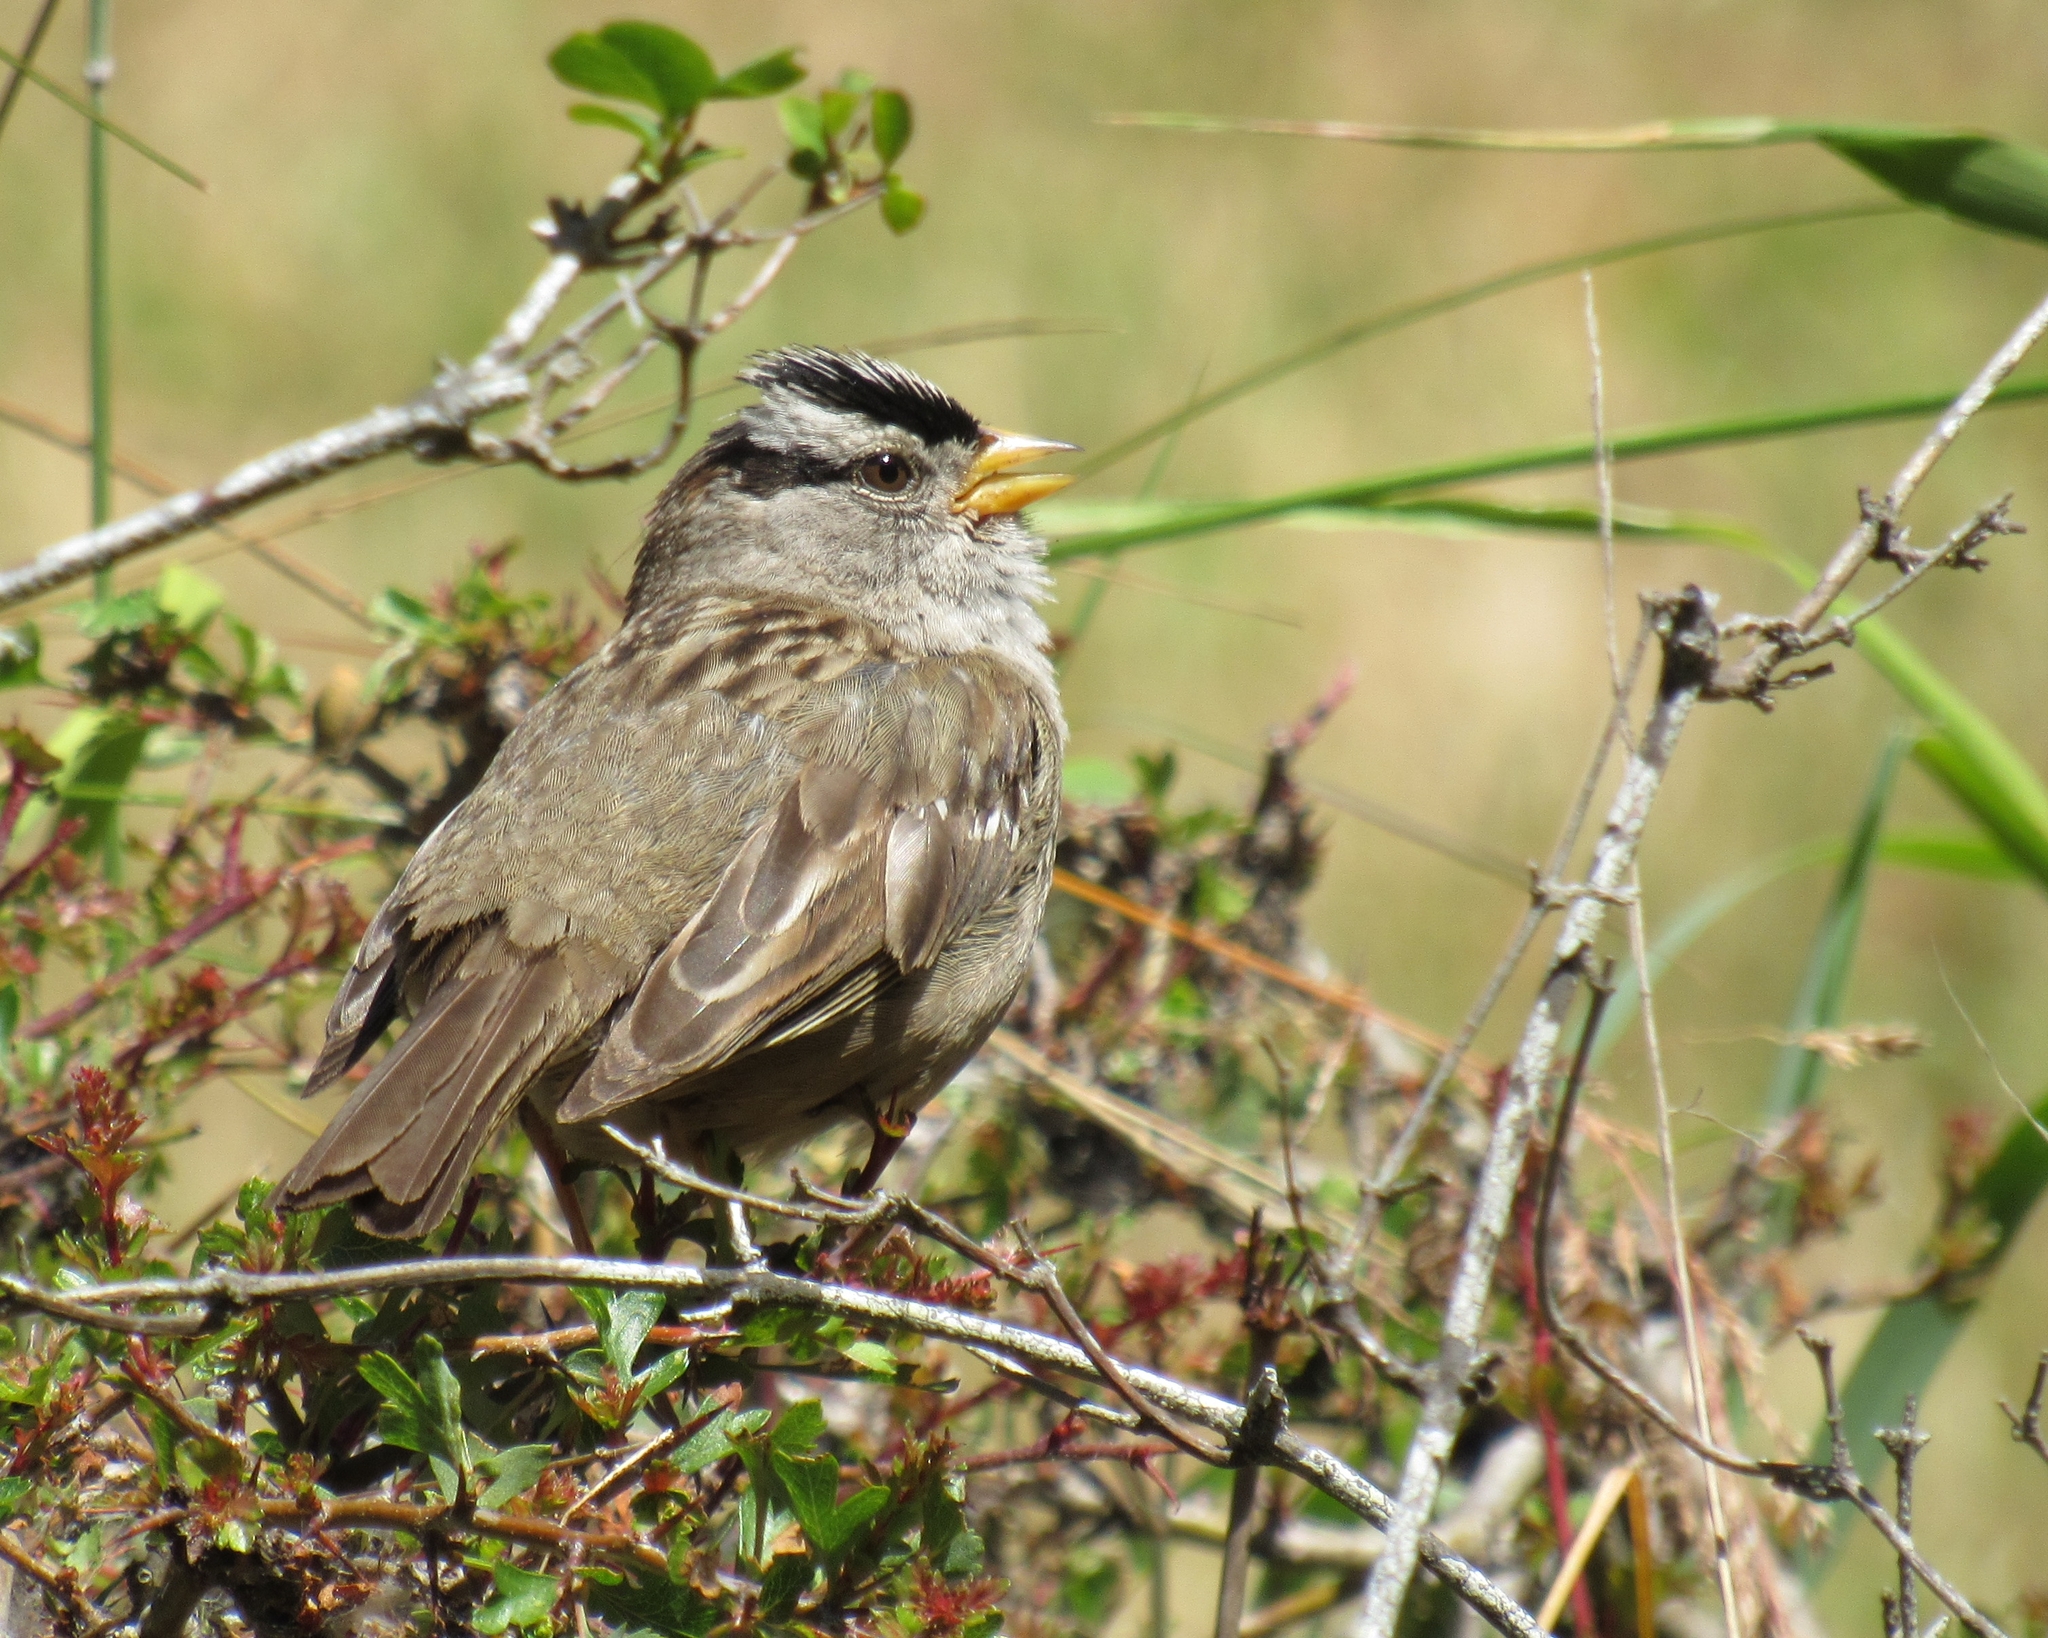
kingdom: Animalia
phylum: Chordata
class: Aves
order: Passeriformes
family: Passerellidae
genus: Zonotrichia
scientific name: Zonotrichia leucophrys
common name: White-crowned sparrow
